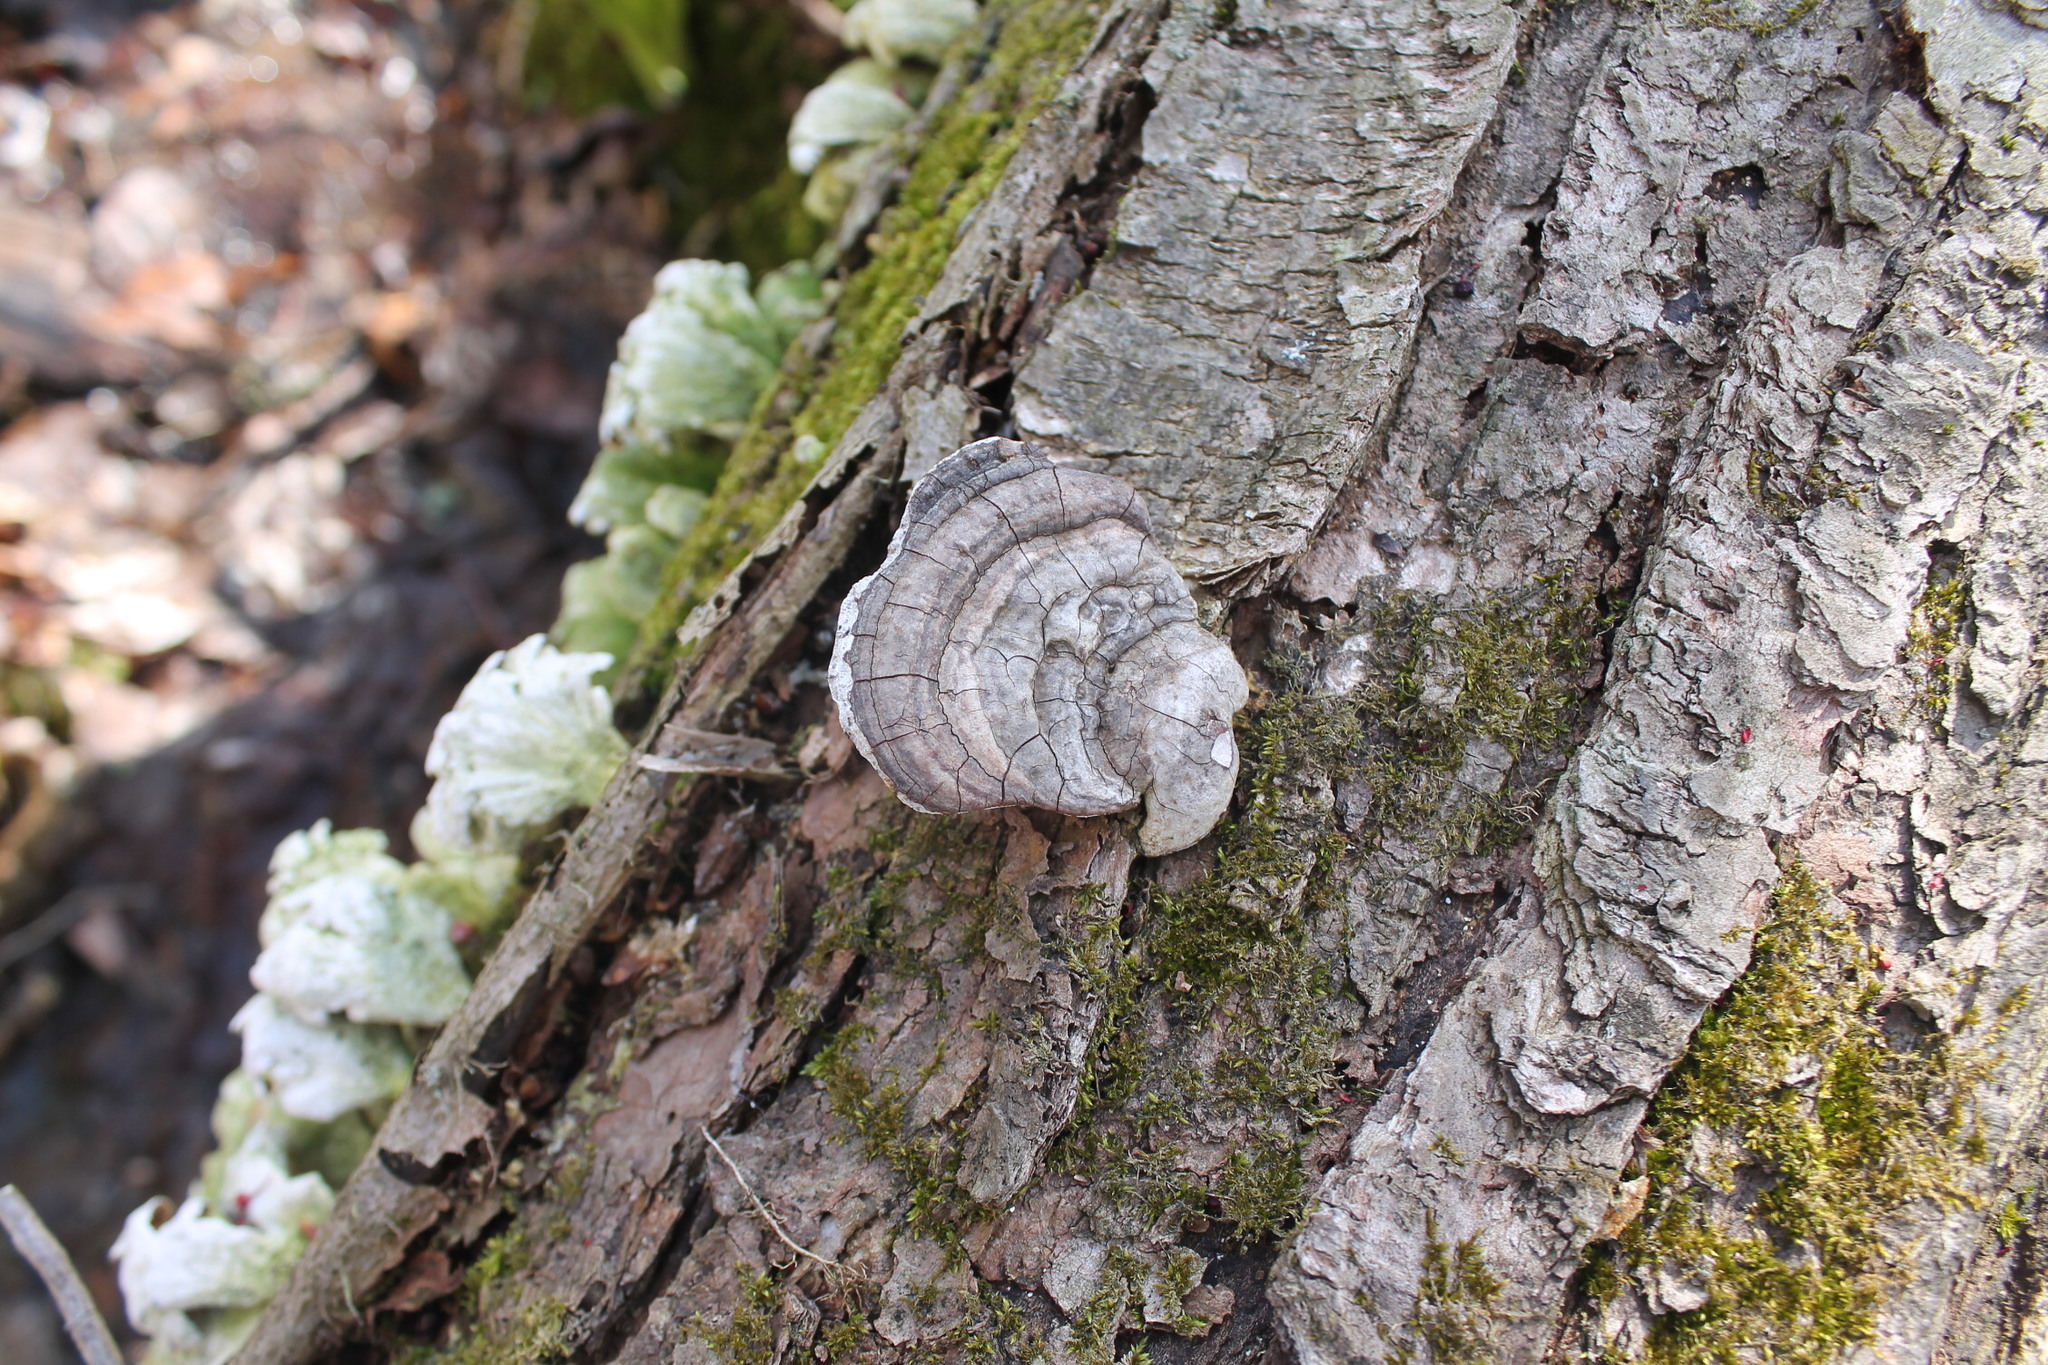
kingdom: Fungi
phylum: Basidiomycota
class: Agaricomycetes
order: Polyporales
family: Polyporaceae
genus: Ganoderma
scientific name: Ganoderma applanatum
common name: Artist's bracket
